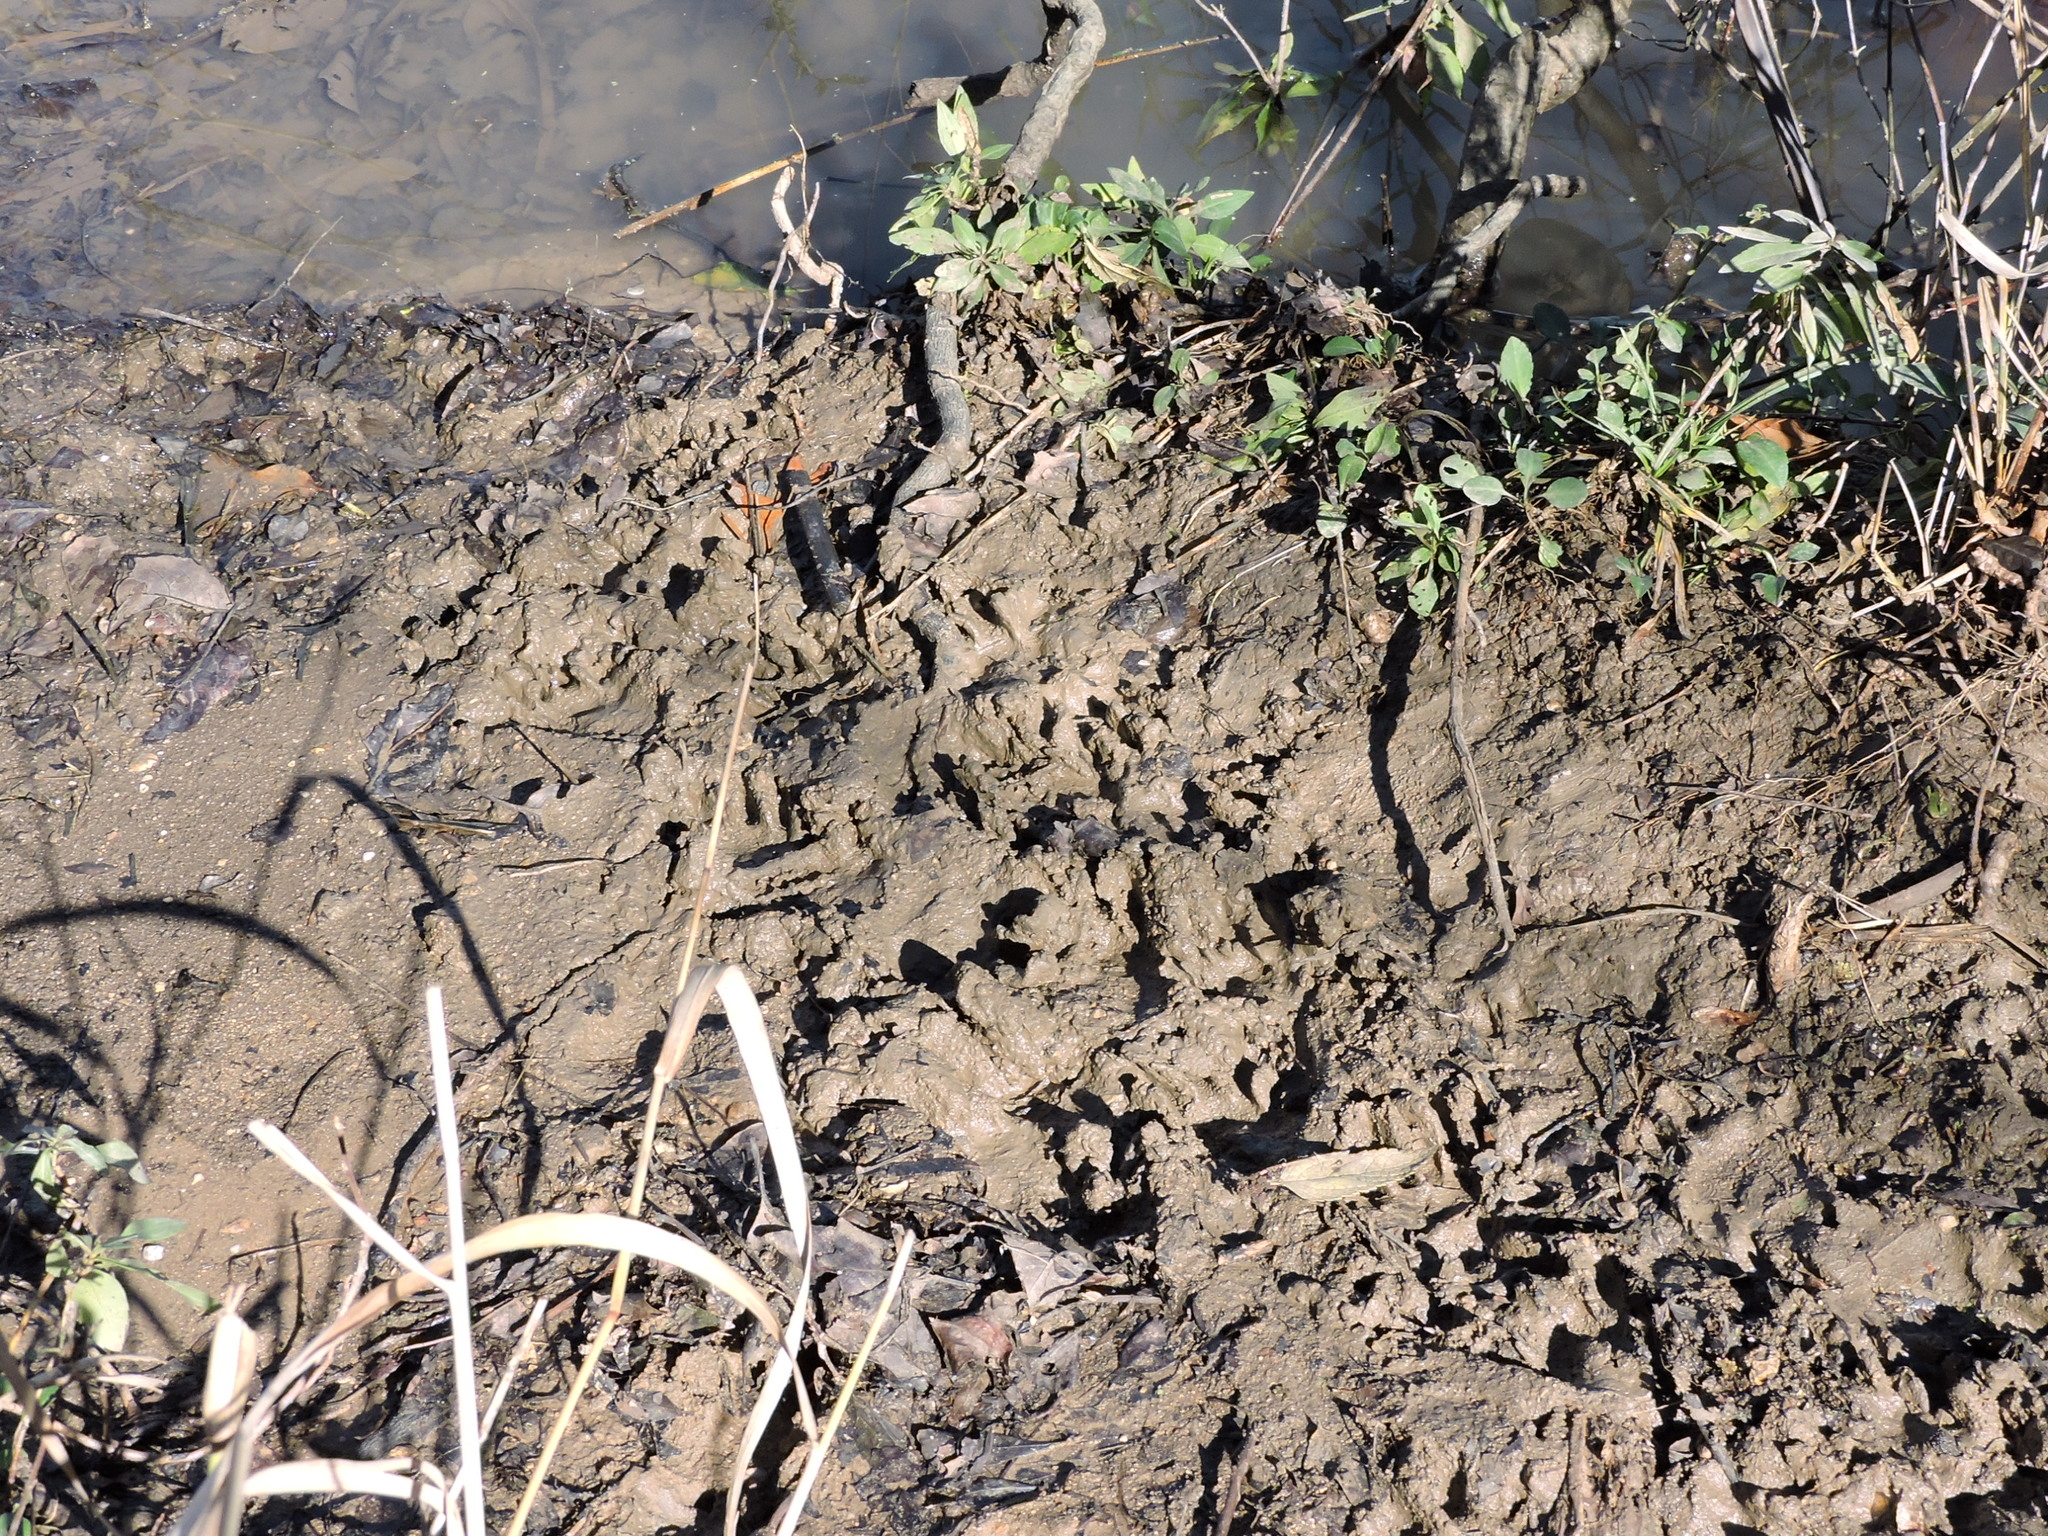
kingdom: Animalia
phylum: Chordata
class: Mammalia
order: Carnivora
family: Procyonidae
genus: Procyon
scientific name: Procyon lotor
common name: Raccoon
